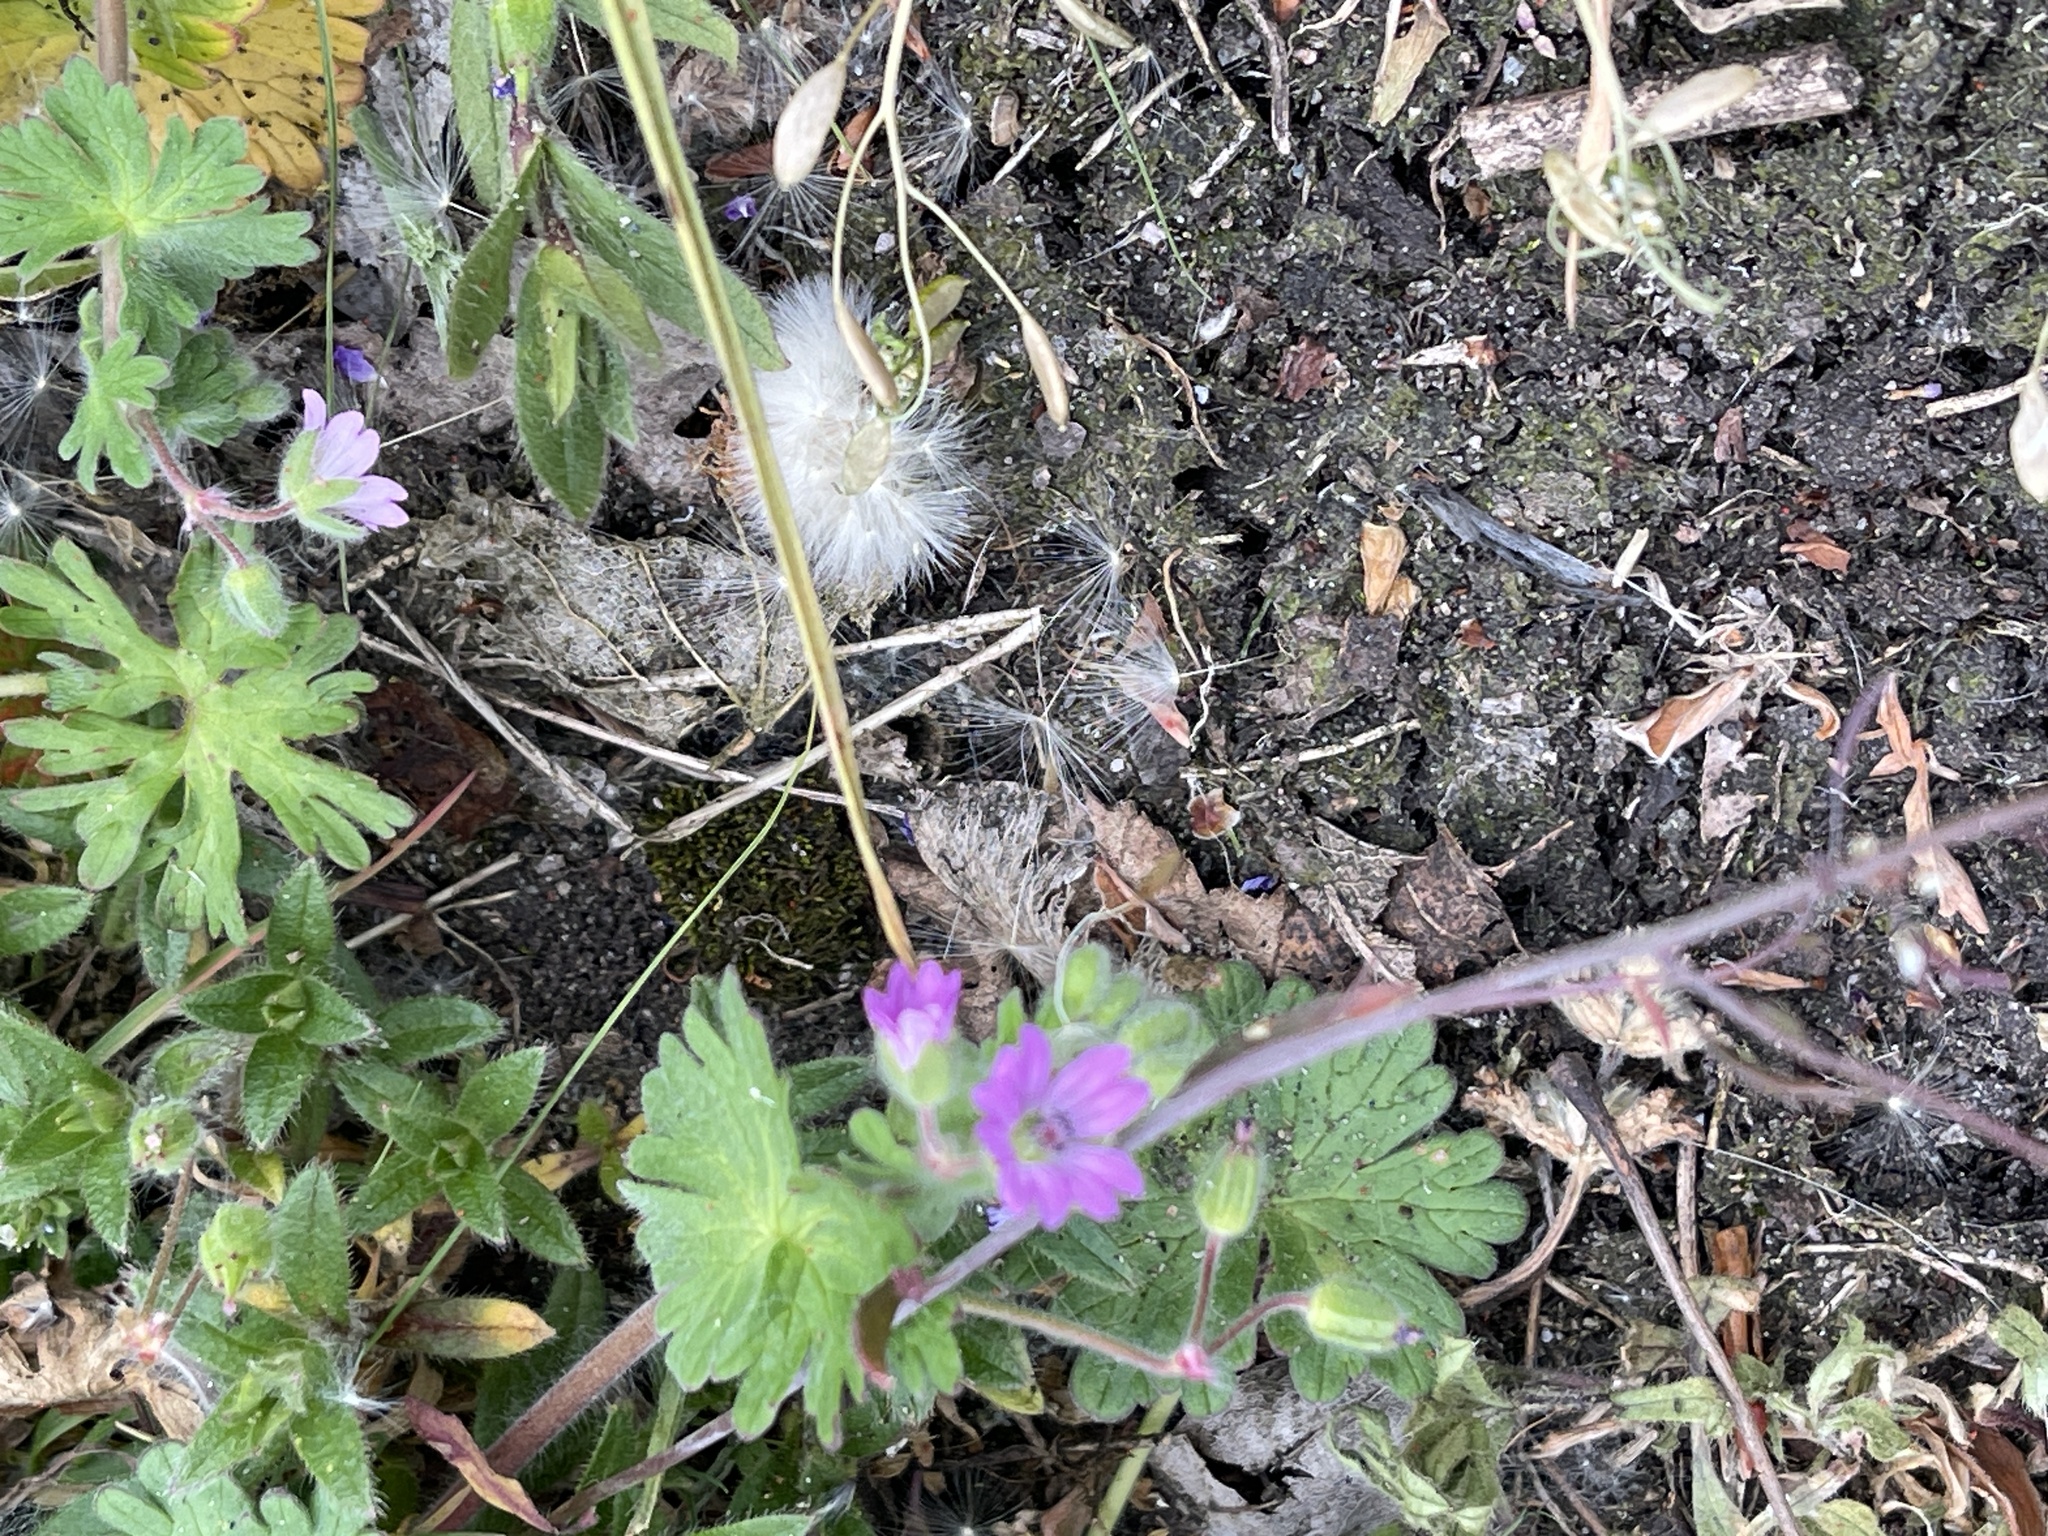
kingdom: Plantae
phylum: Tracheophyta
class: Magnoliopsida
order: Geraniales
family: Geraniaceae
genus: Geranium
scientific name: Geranium molle
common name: Dove's-foot crane's-bill
